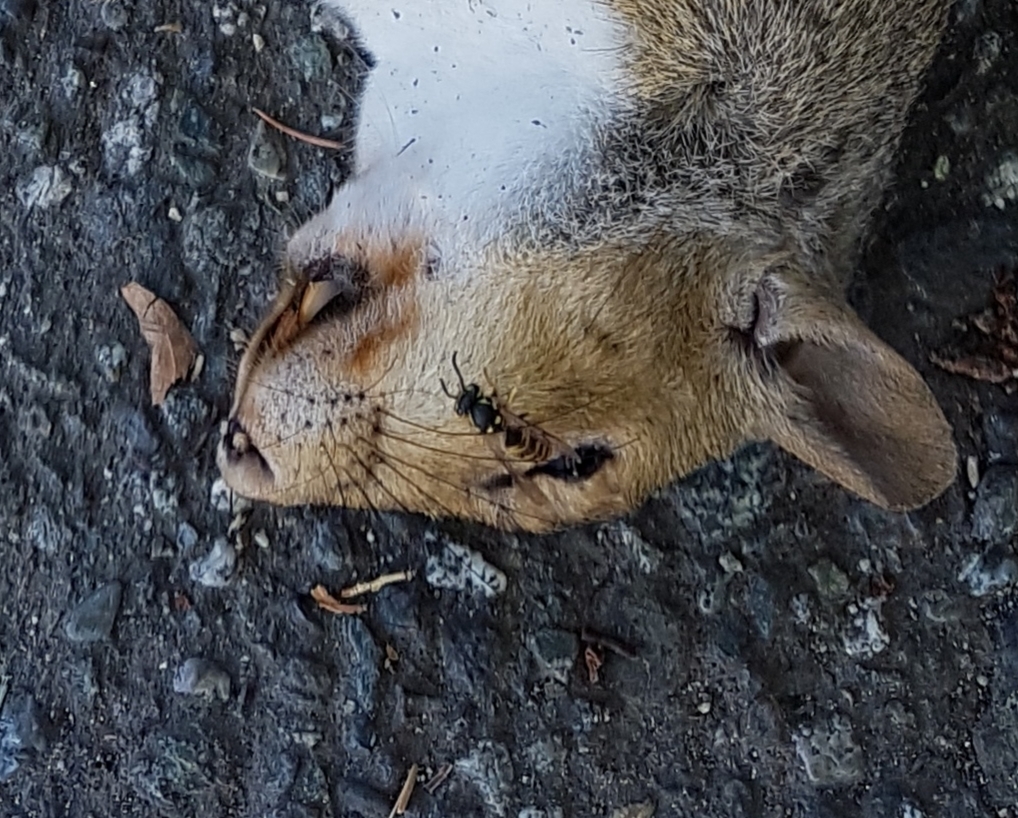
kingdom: Animalia
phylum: Arthropoda
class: Insecta
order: Hymenoptera
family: Vespidae
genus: Vespula
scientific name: Vespula
